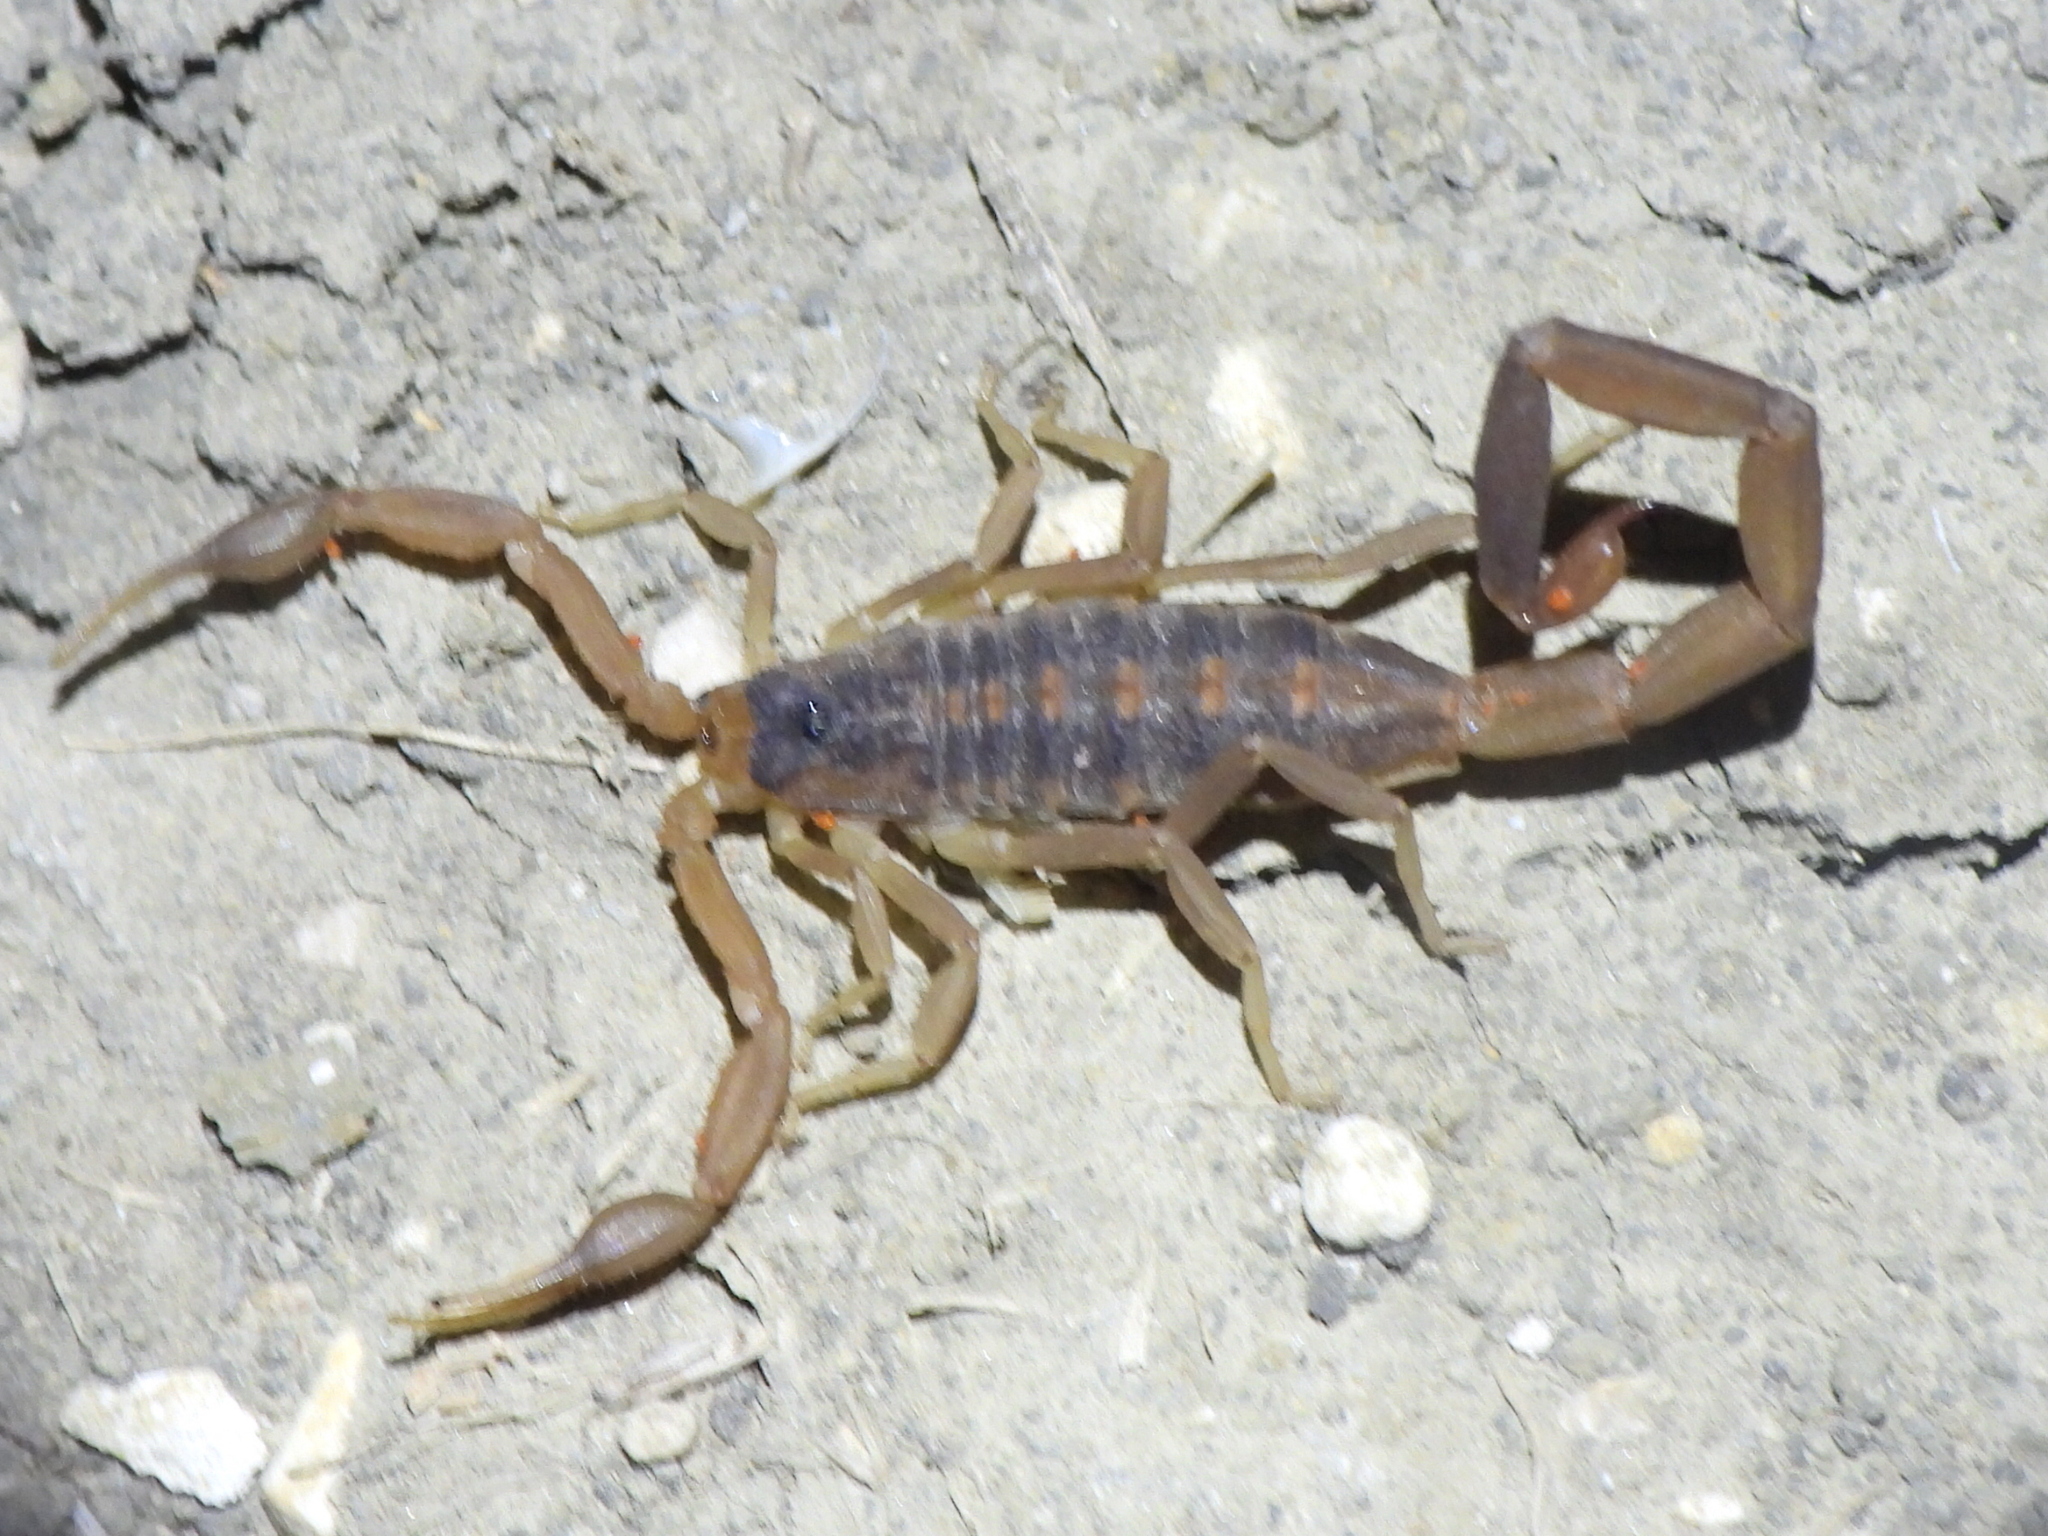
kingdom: Animalia
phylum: Arthropoda
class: Arachnida
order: Scorpiones
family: Buthidae
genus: Centruroides
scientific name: Centruroides vittatus
